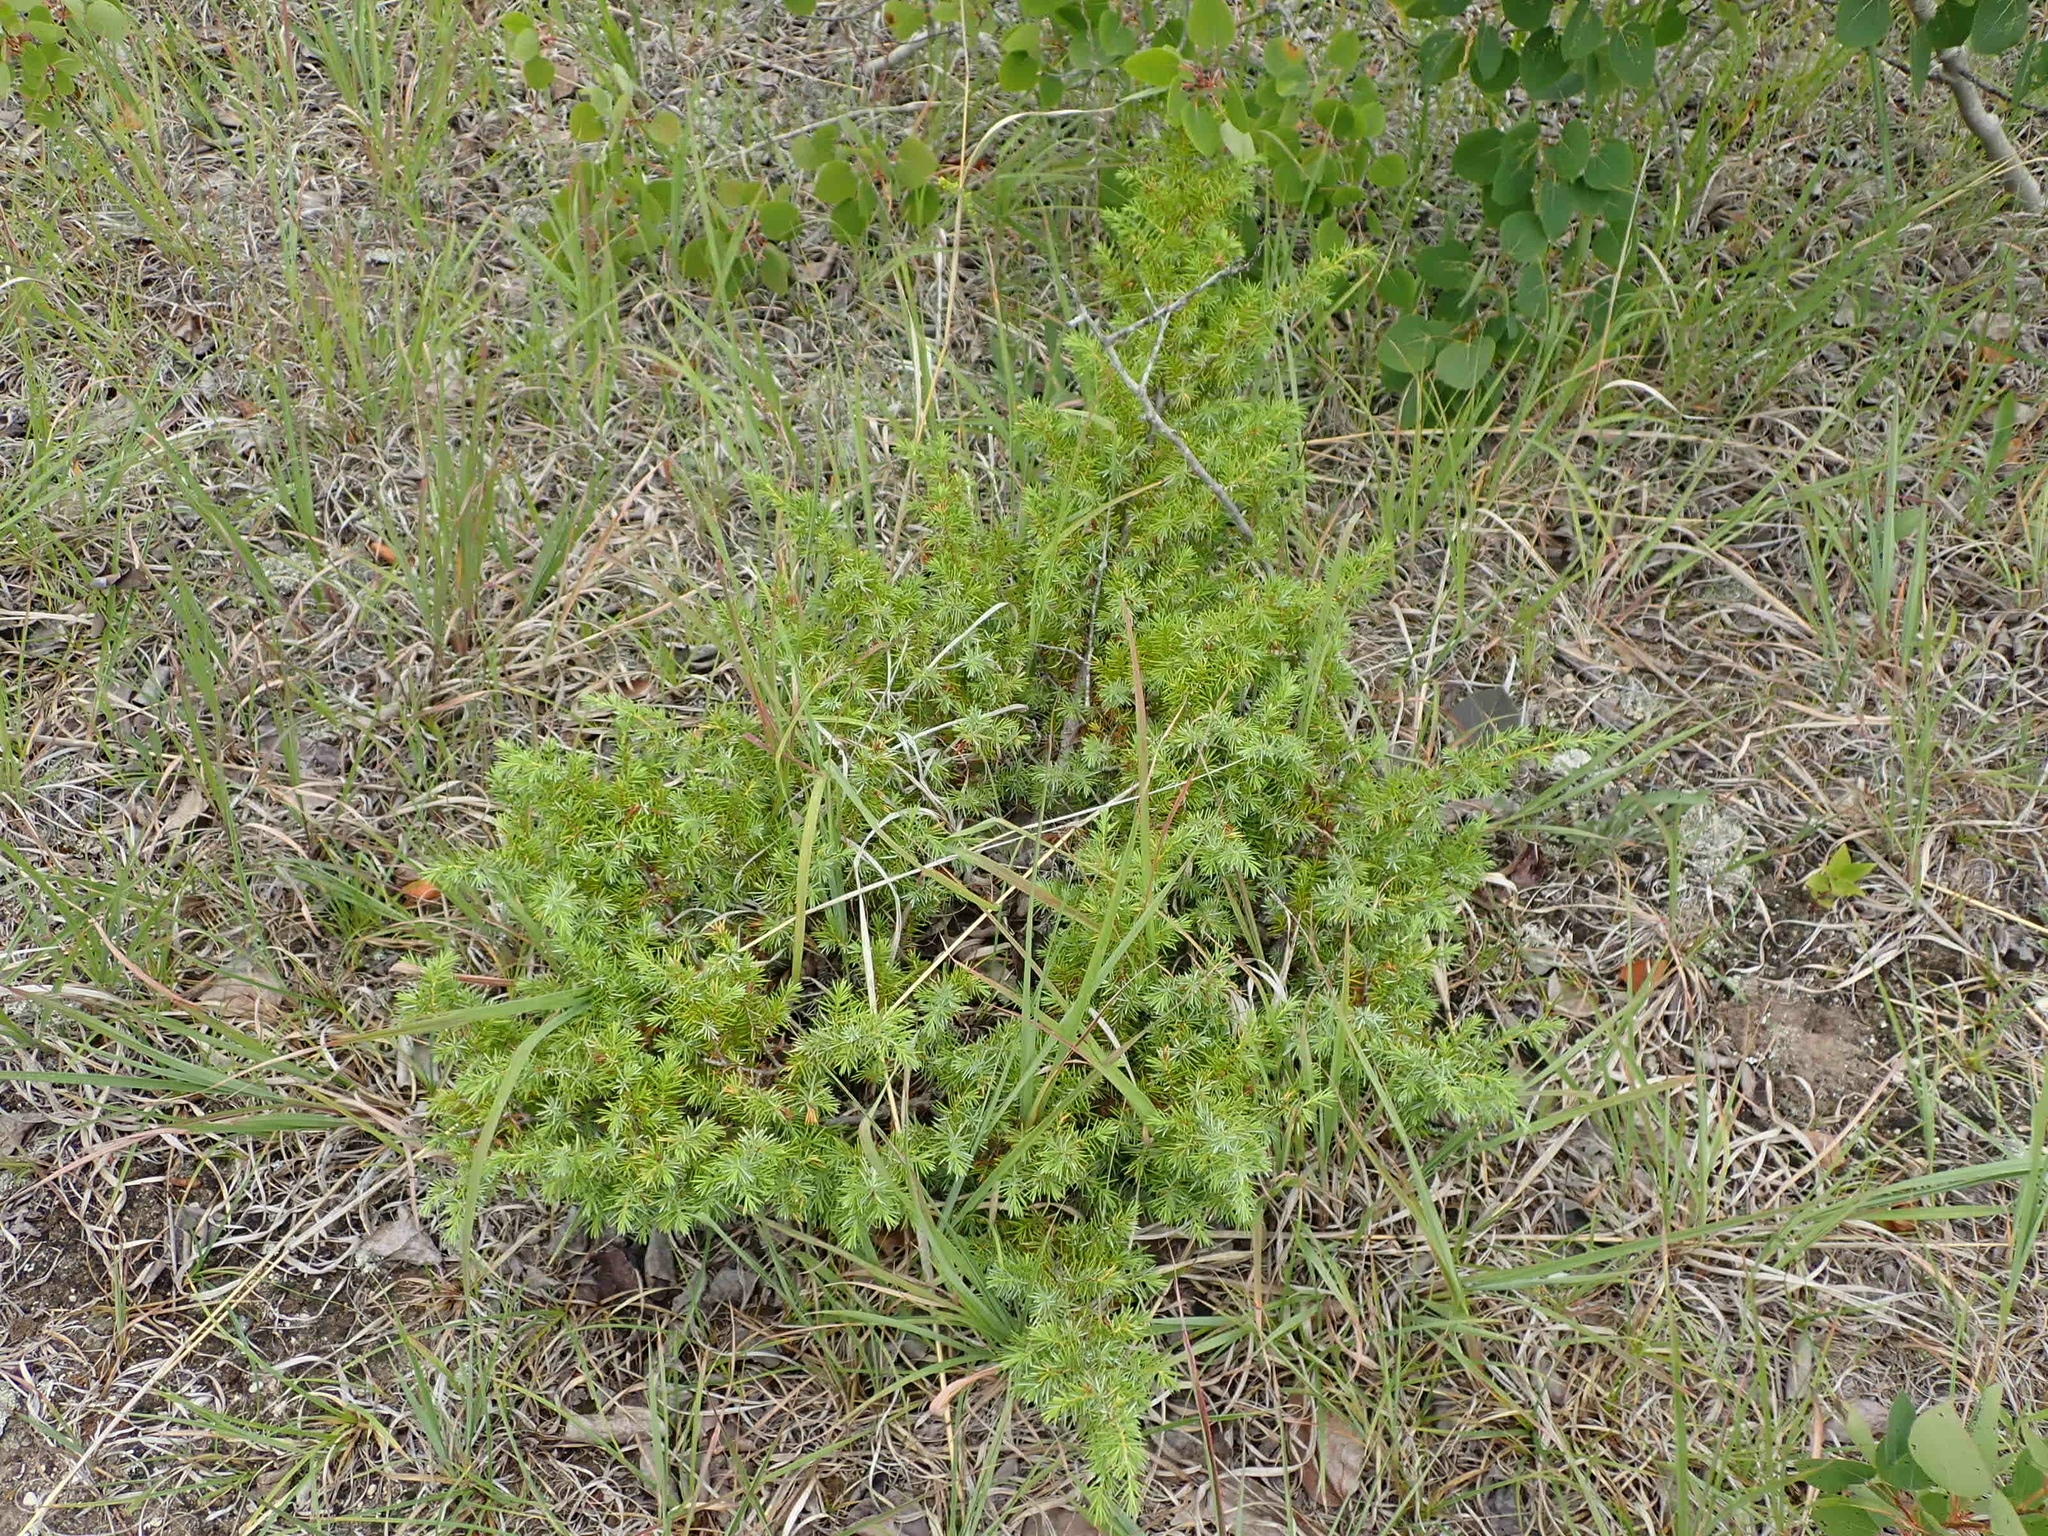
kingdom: Plantae
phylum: Tracheophyta
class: Pinopsida
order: Pinales
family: Cupressaceae
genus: Juniperus
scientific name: Juniperus communis
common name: Common juniper
